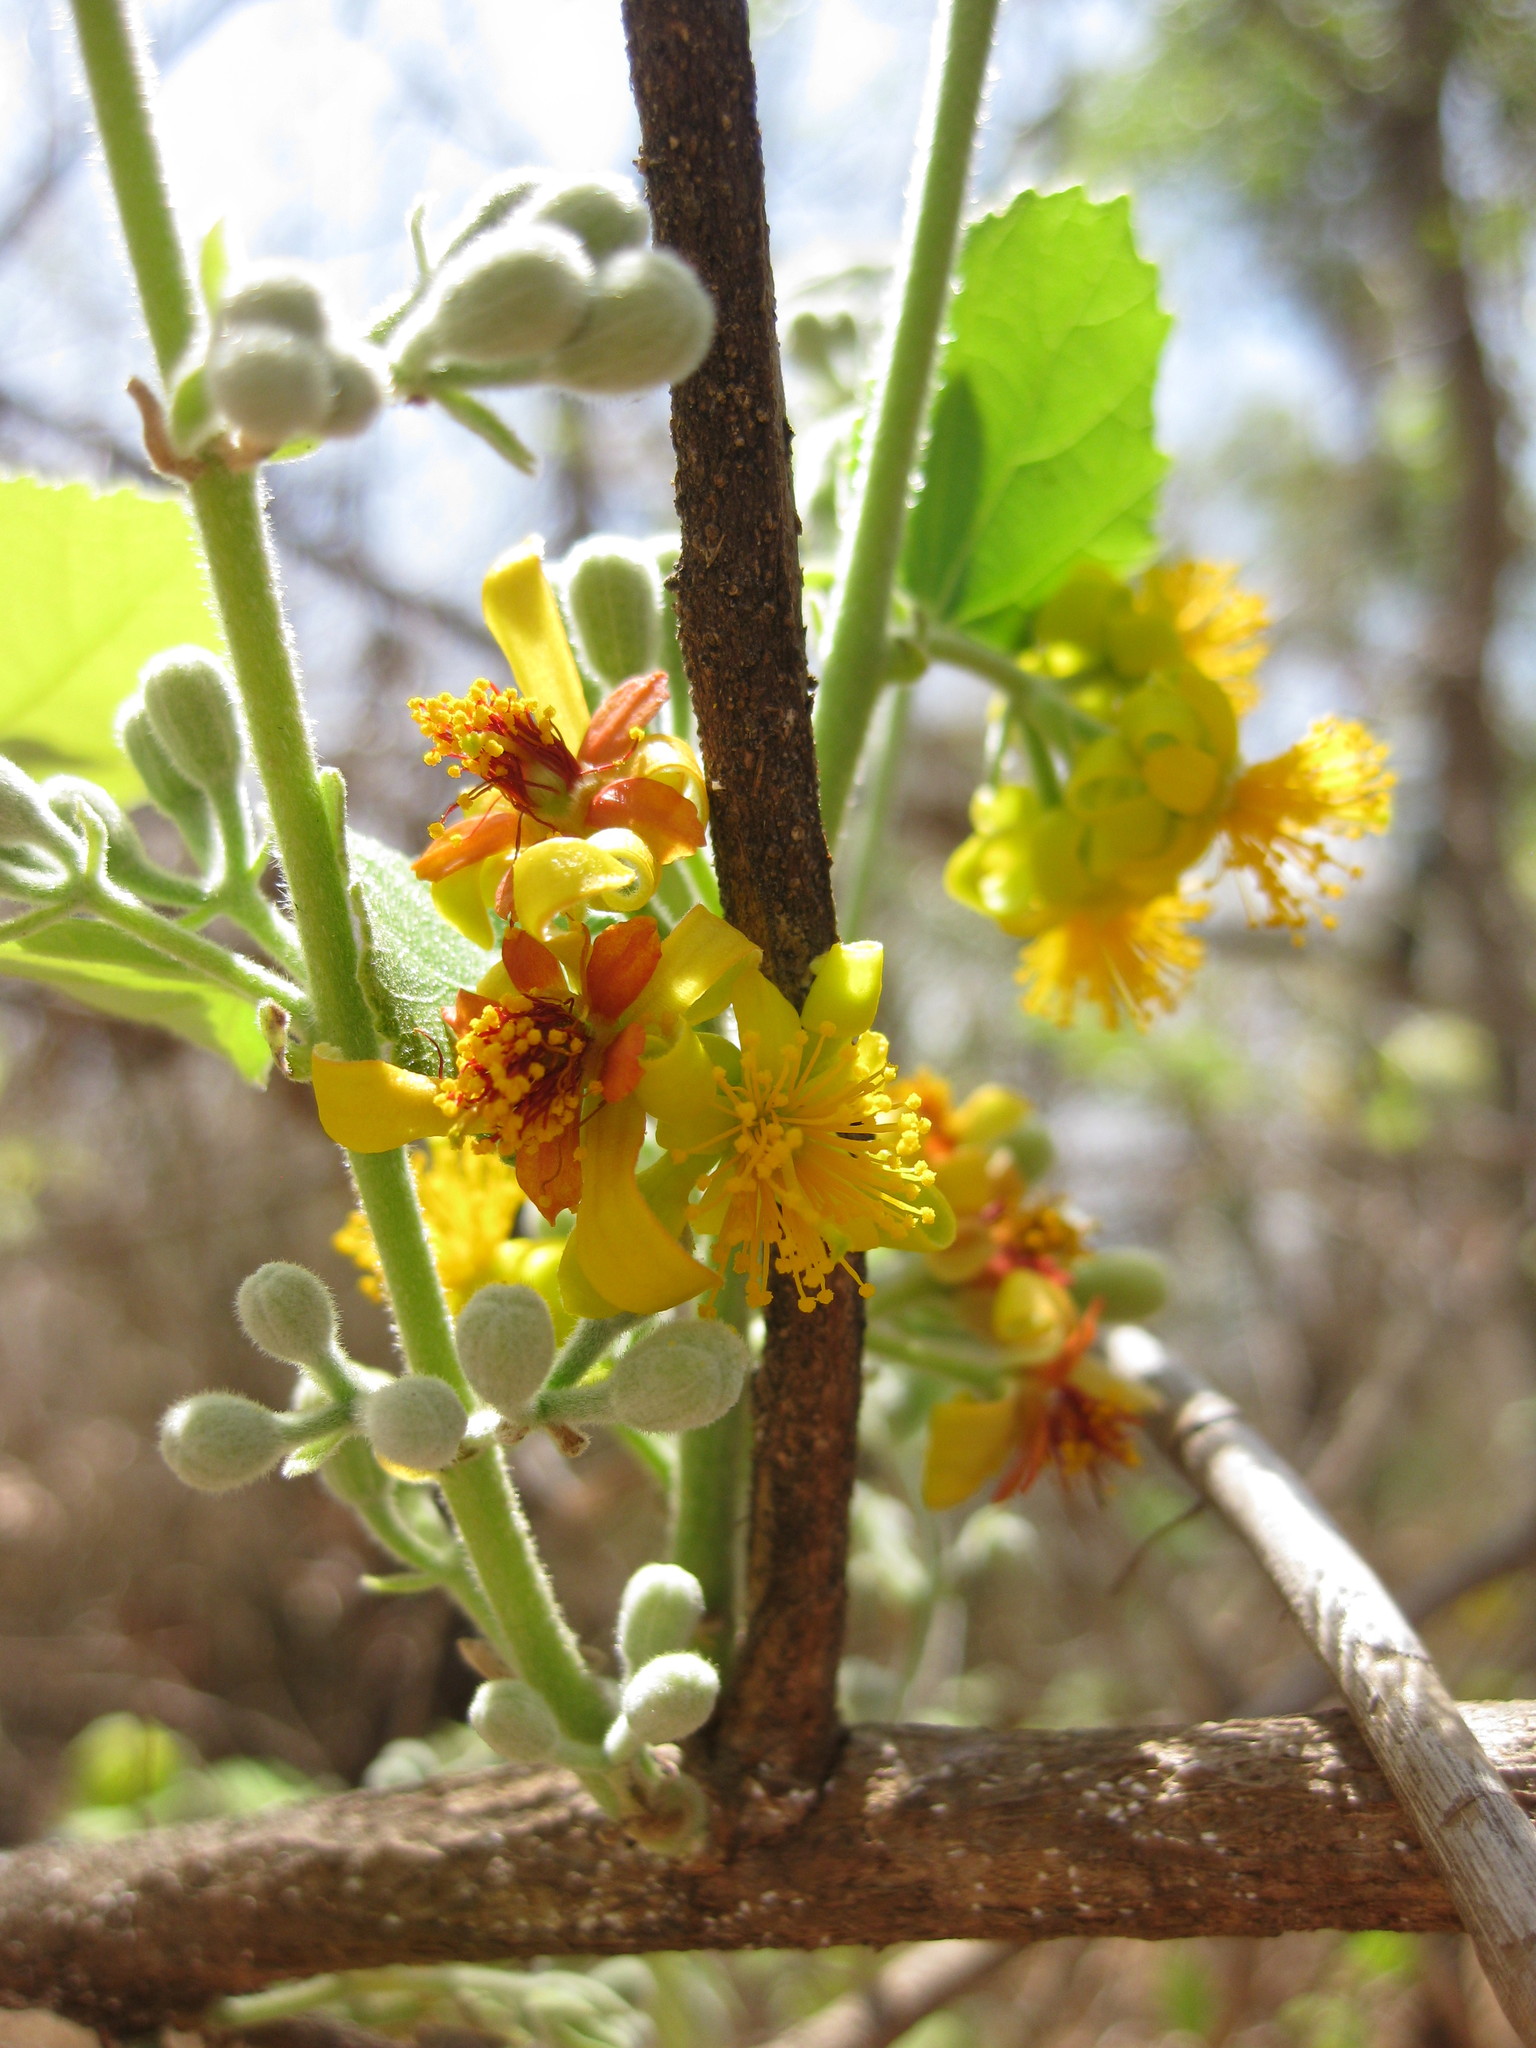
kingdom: Plantae
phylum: Tracheophyta
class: Magnoliopsida
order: Malvales
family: Malvaceae
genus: Grewia
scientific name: Grewia asiatica
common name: Phalsa
